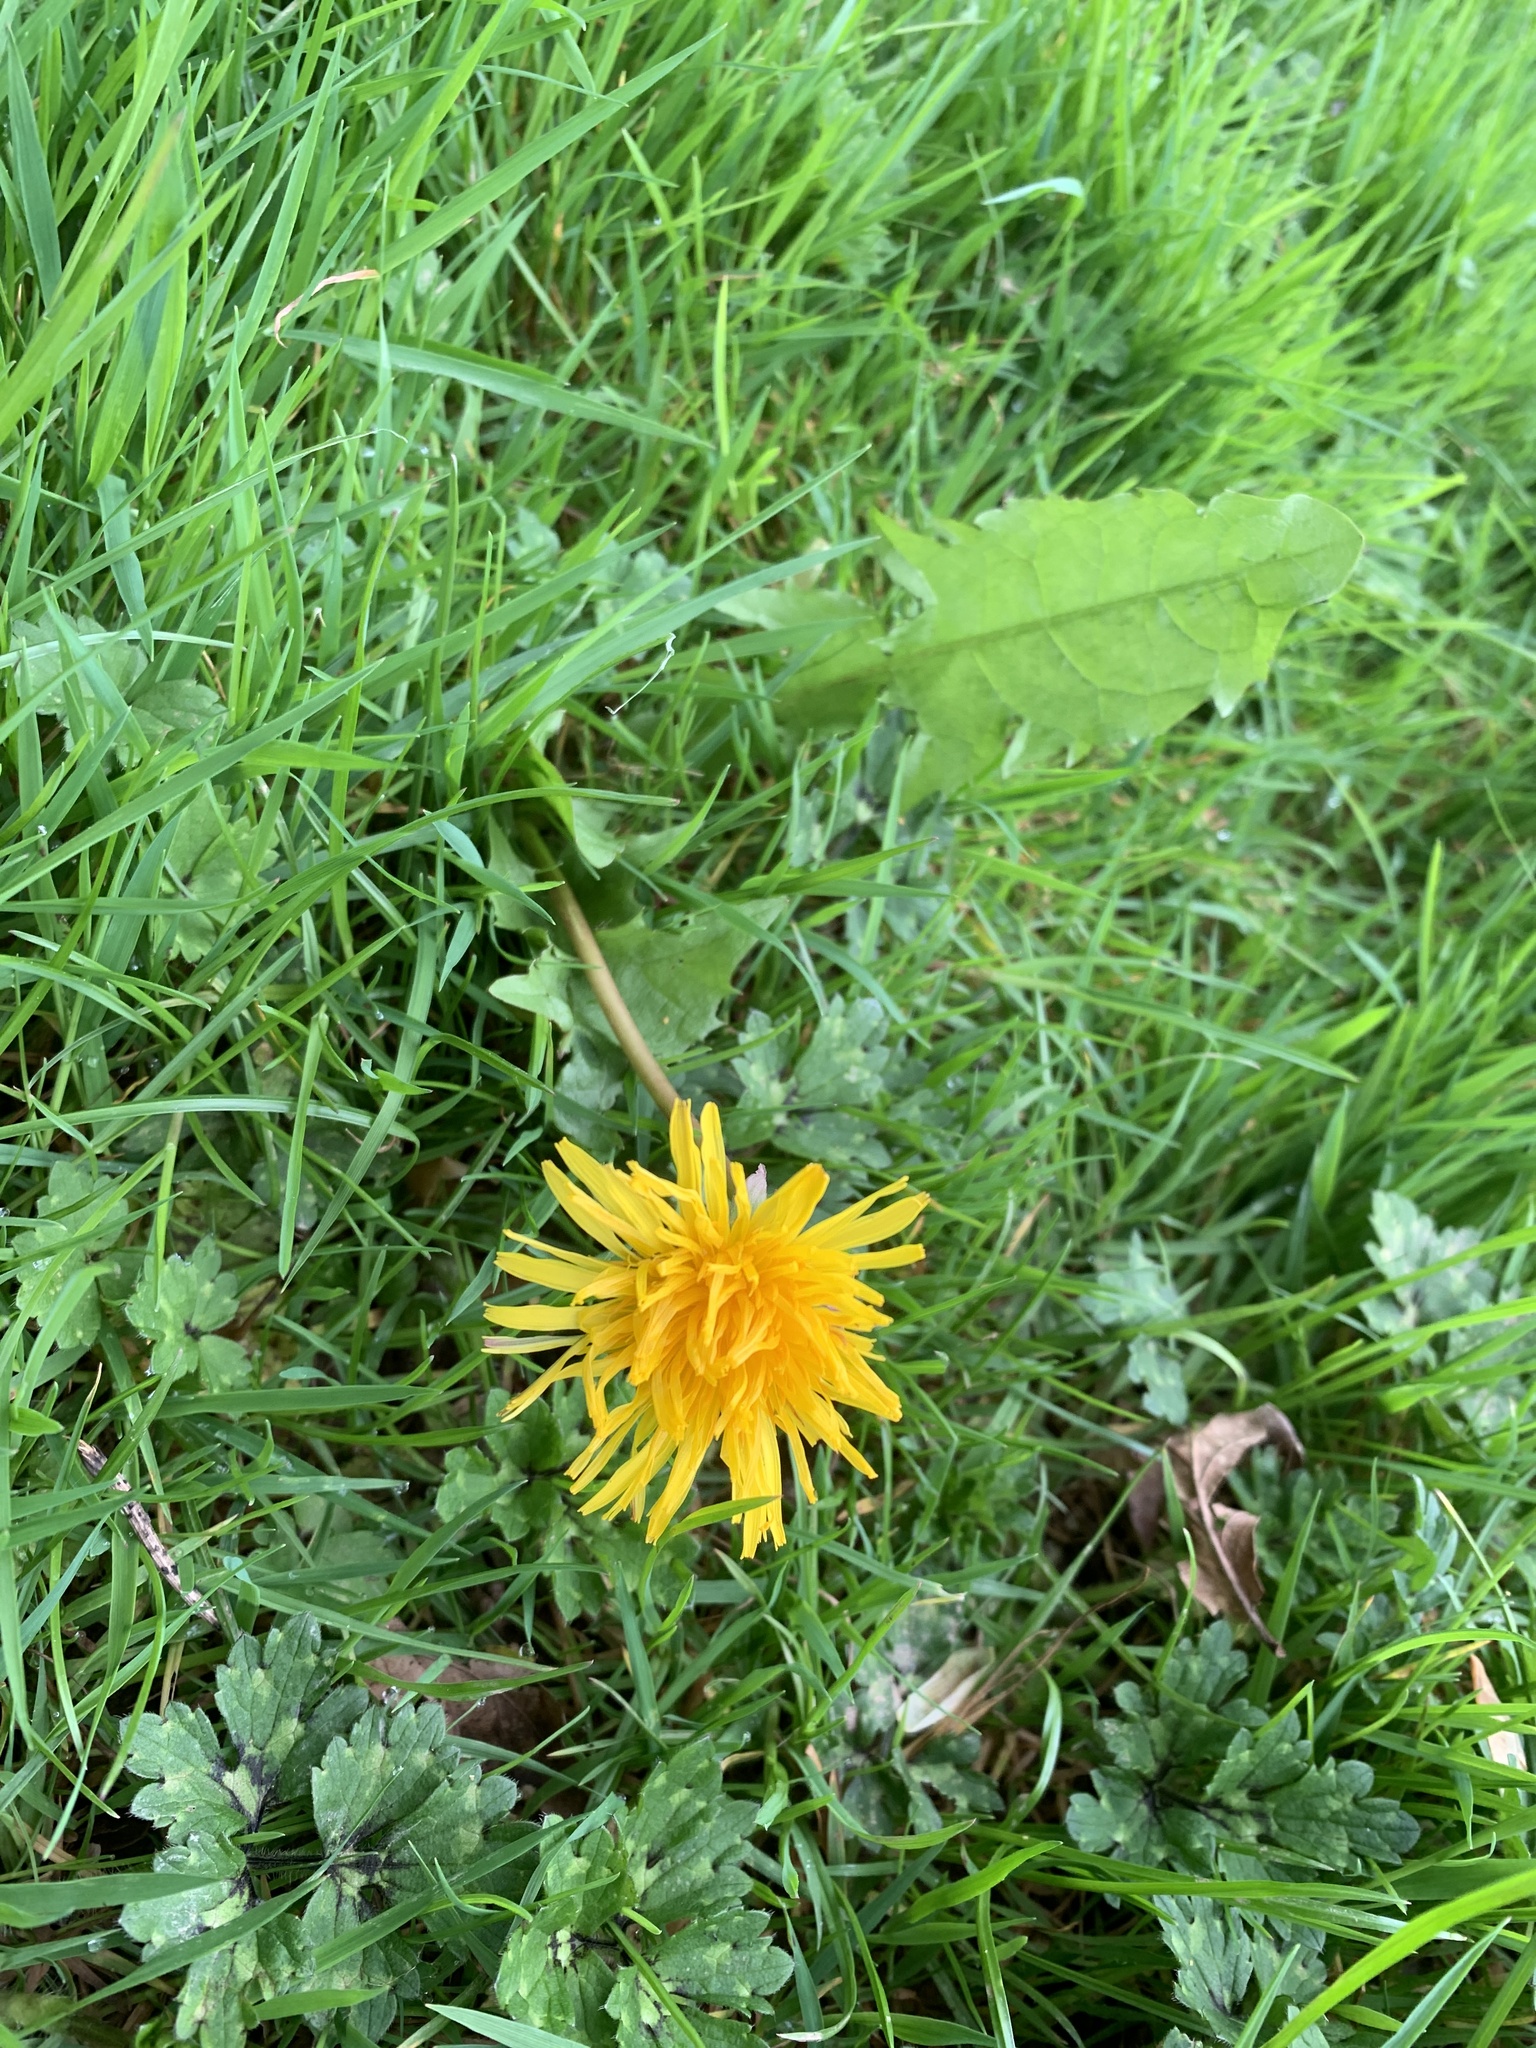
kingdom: Plantae
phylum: Tracheophyta
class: Magnoliopsida
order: Asterales
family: Asteraceae
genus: Taraxacum
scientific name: Taraxacum officinale
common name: Common dandelion
